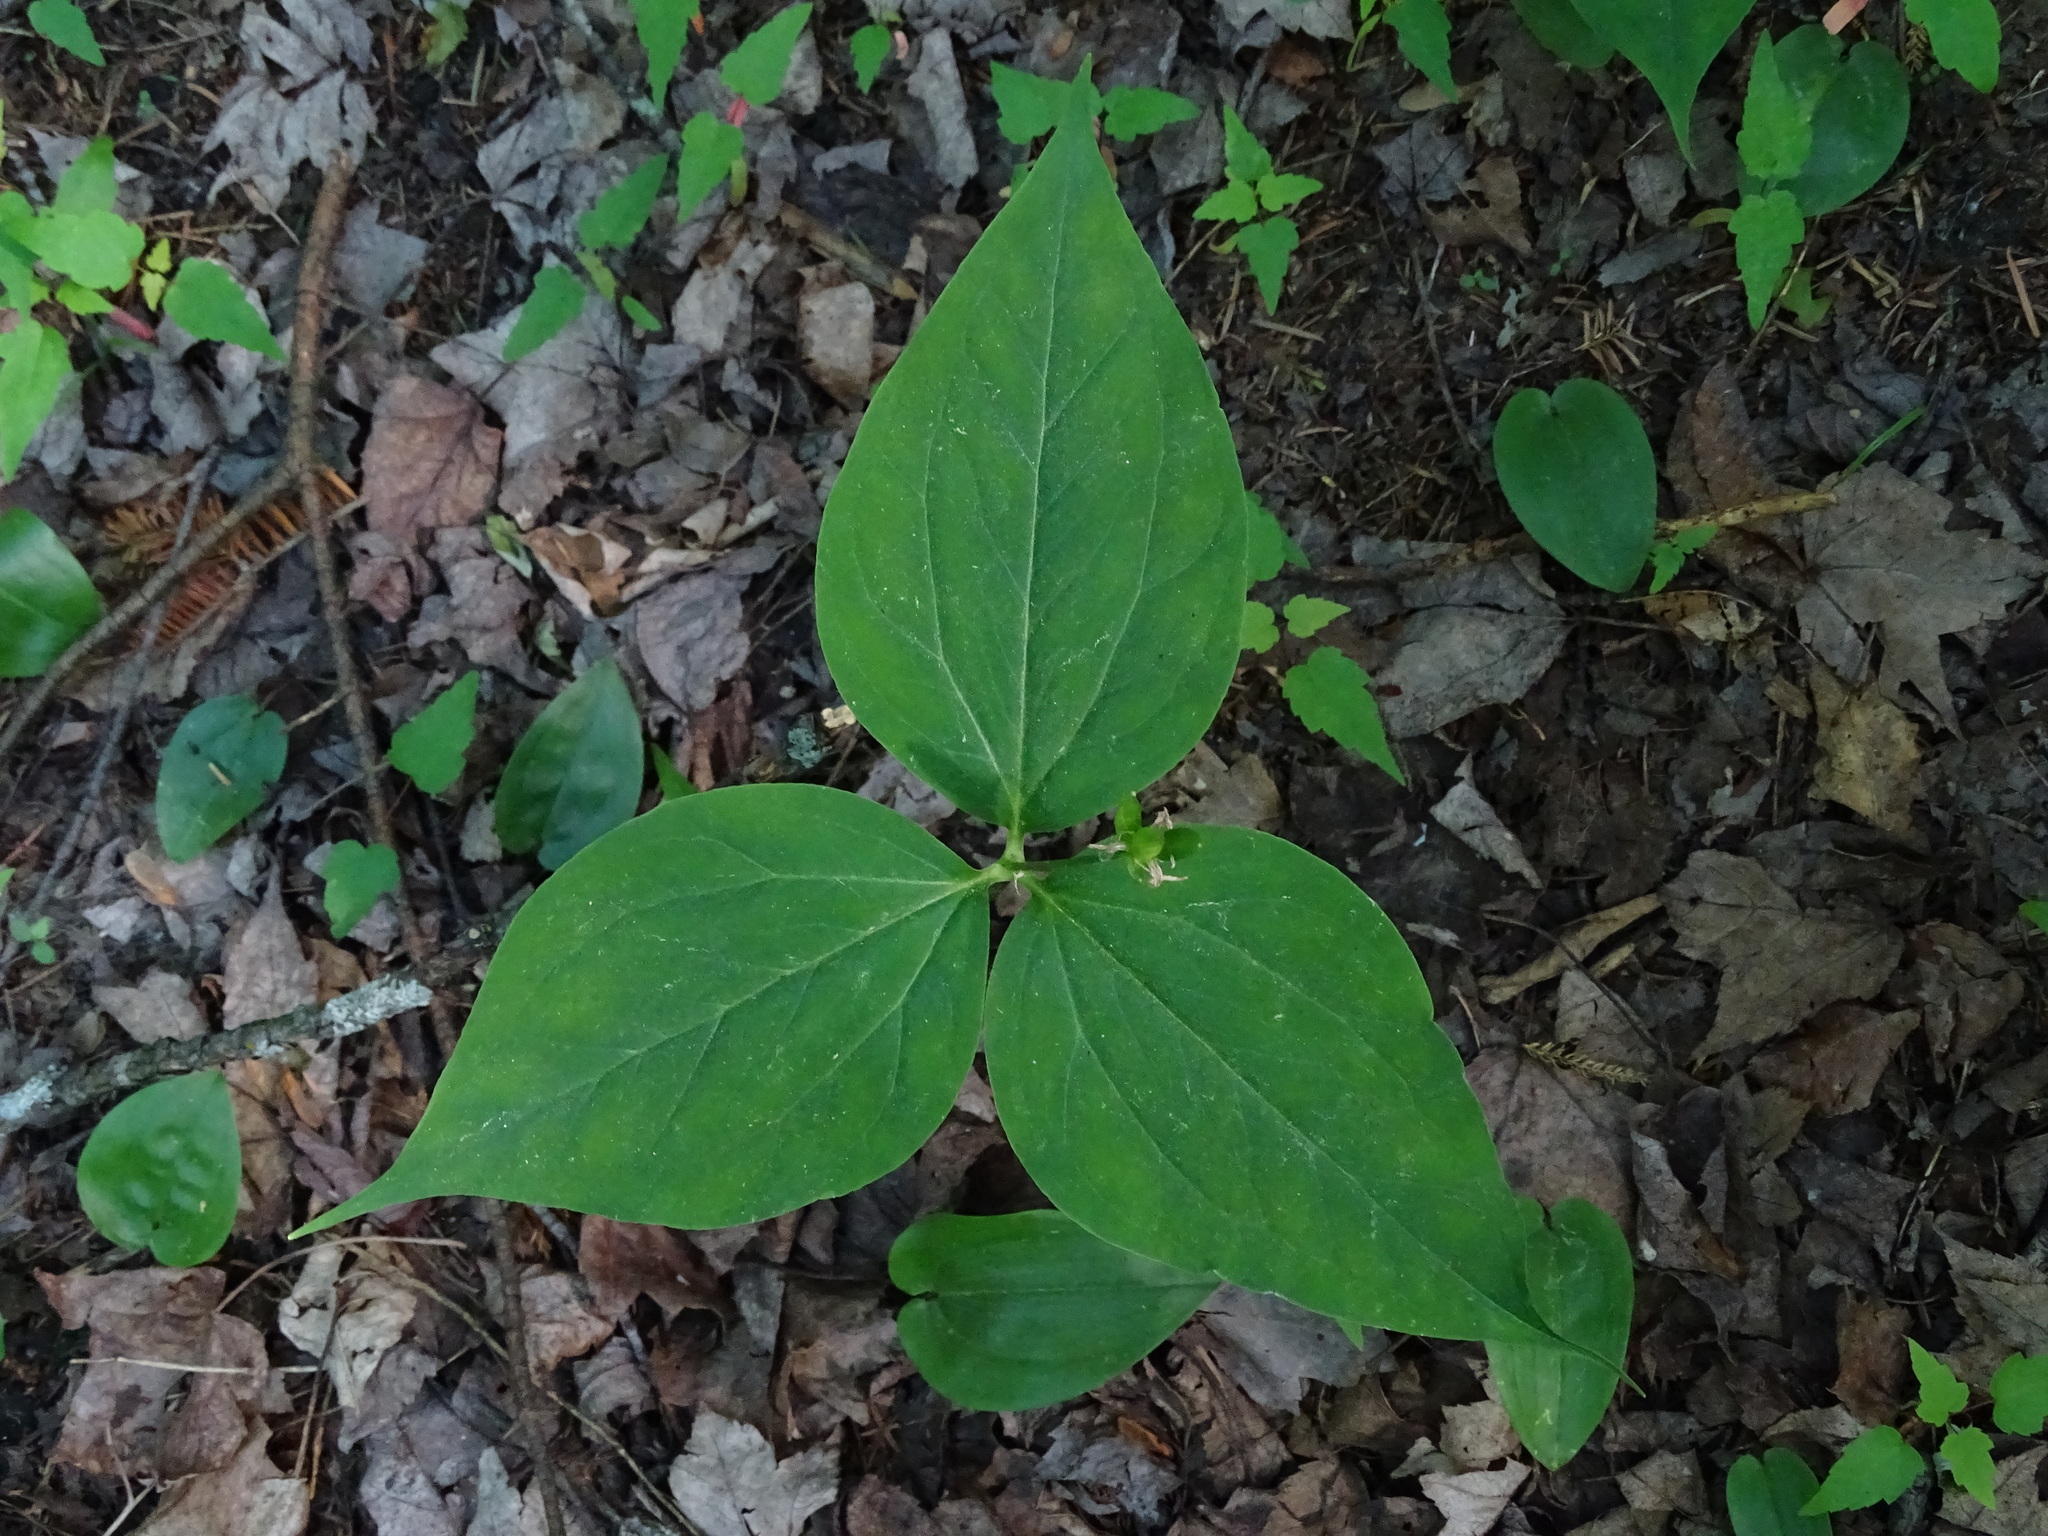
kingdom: Plantae
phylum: Tracheophyta
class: Liliopsida
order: Liliales
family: Melanthiaceae
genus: Trillium
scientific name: Trillium undulatum
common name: Paint trillium
